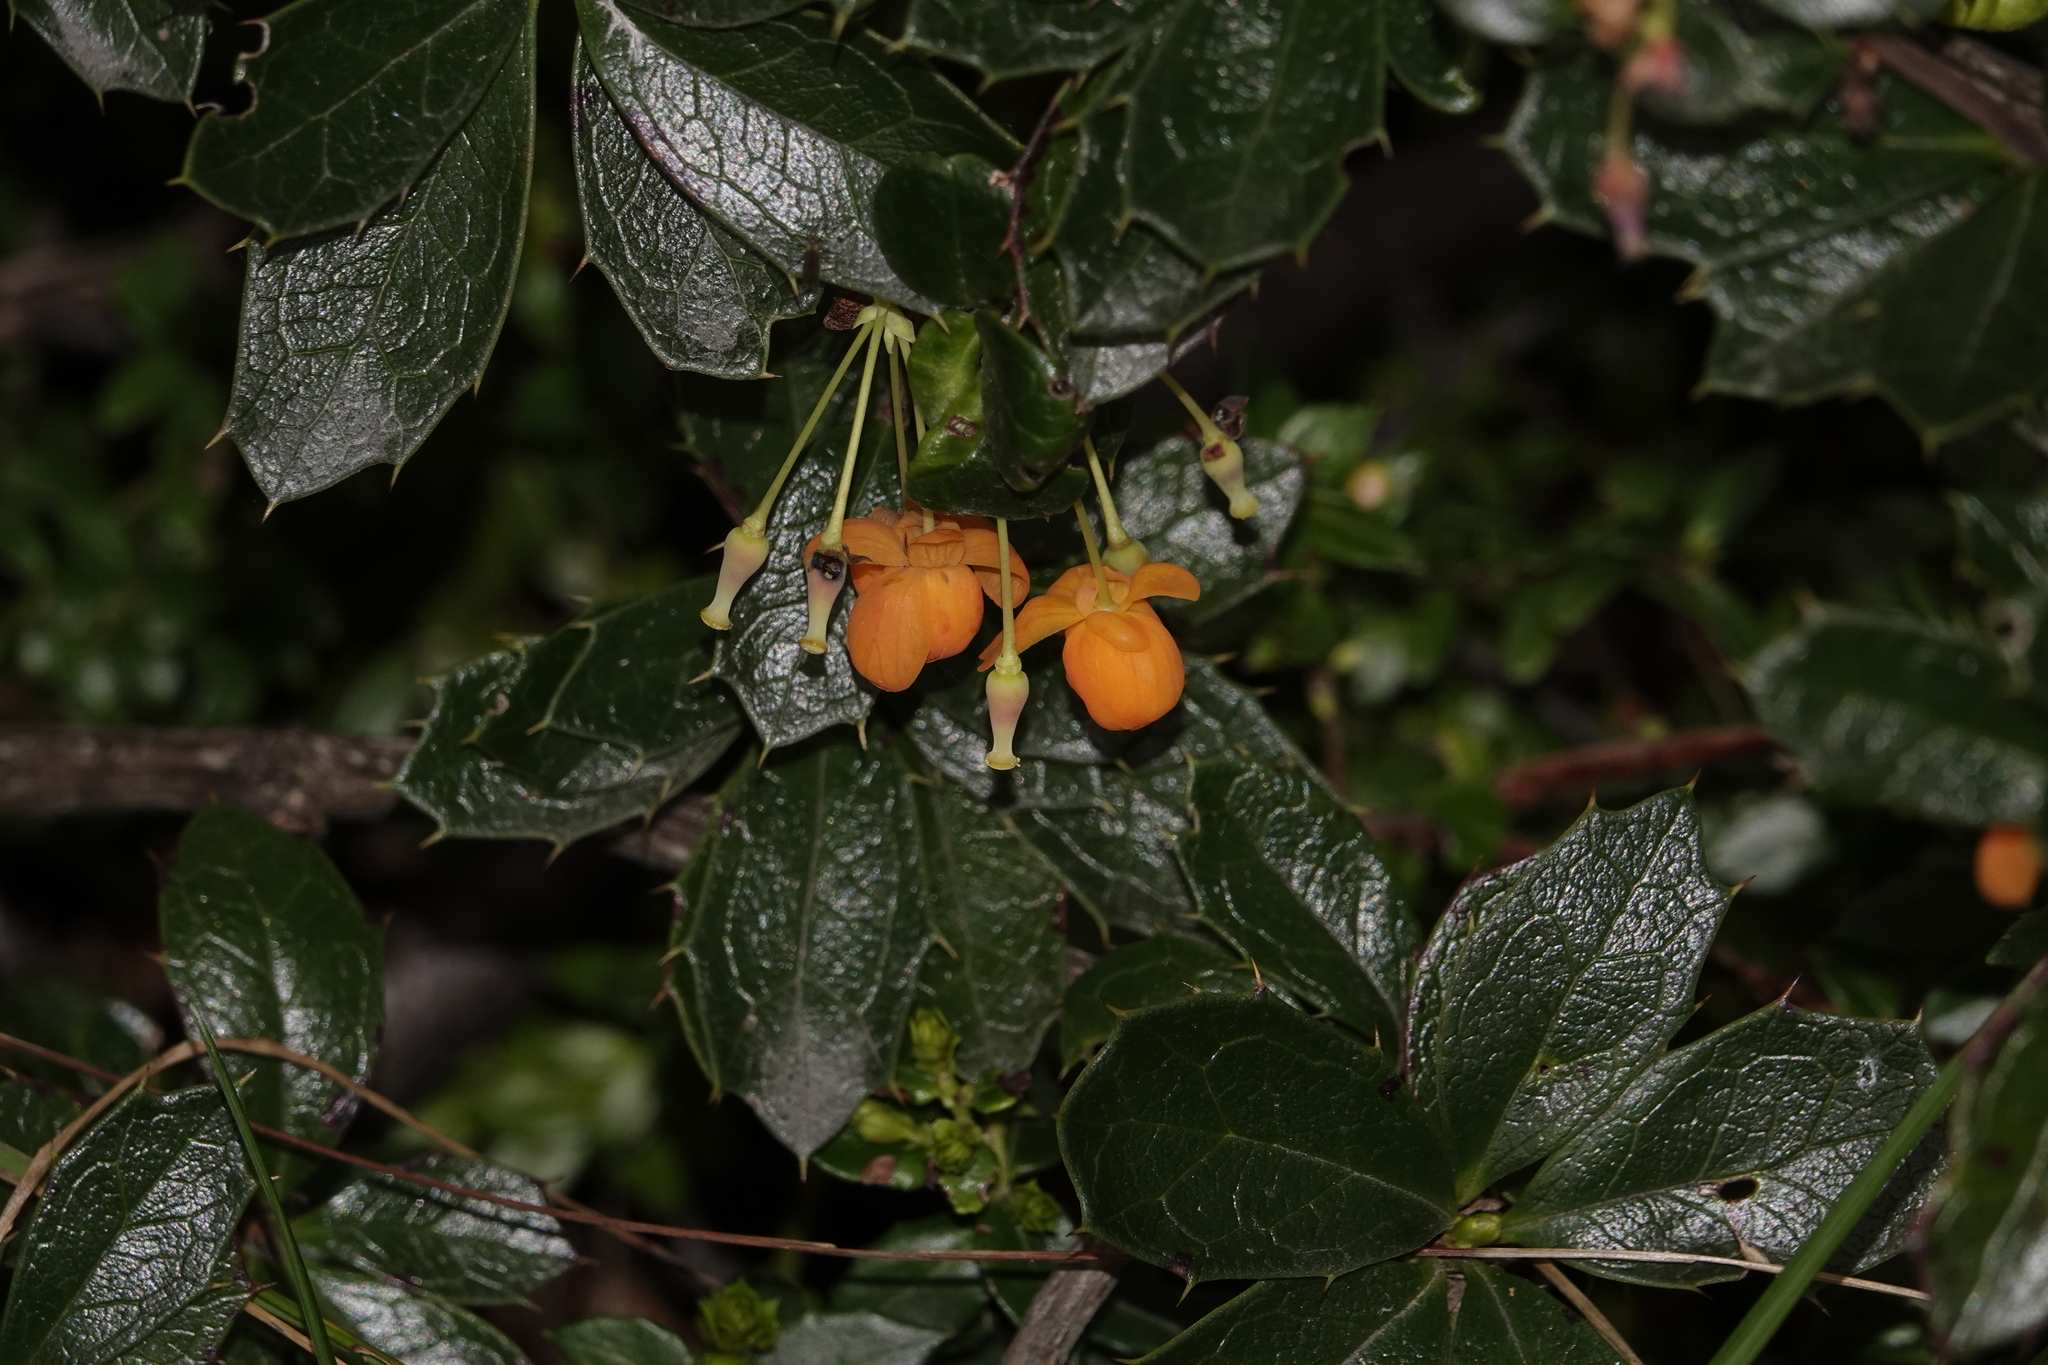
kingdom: Plantae
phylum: Tracheophyta
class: Magnoliopsida
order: Ranunculales
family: Berberidaceae
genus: Berberis
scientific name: Berberis ilicifolia
